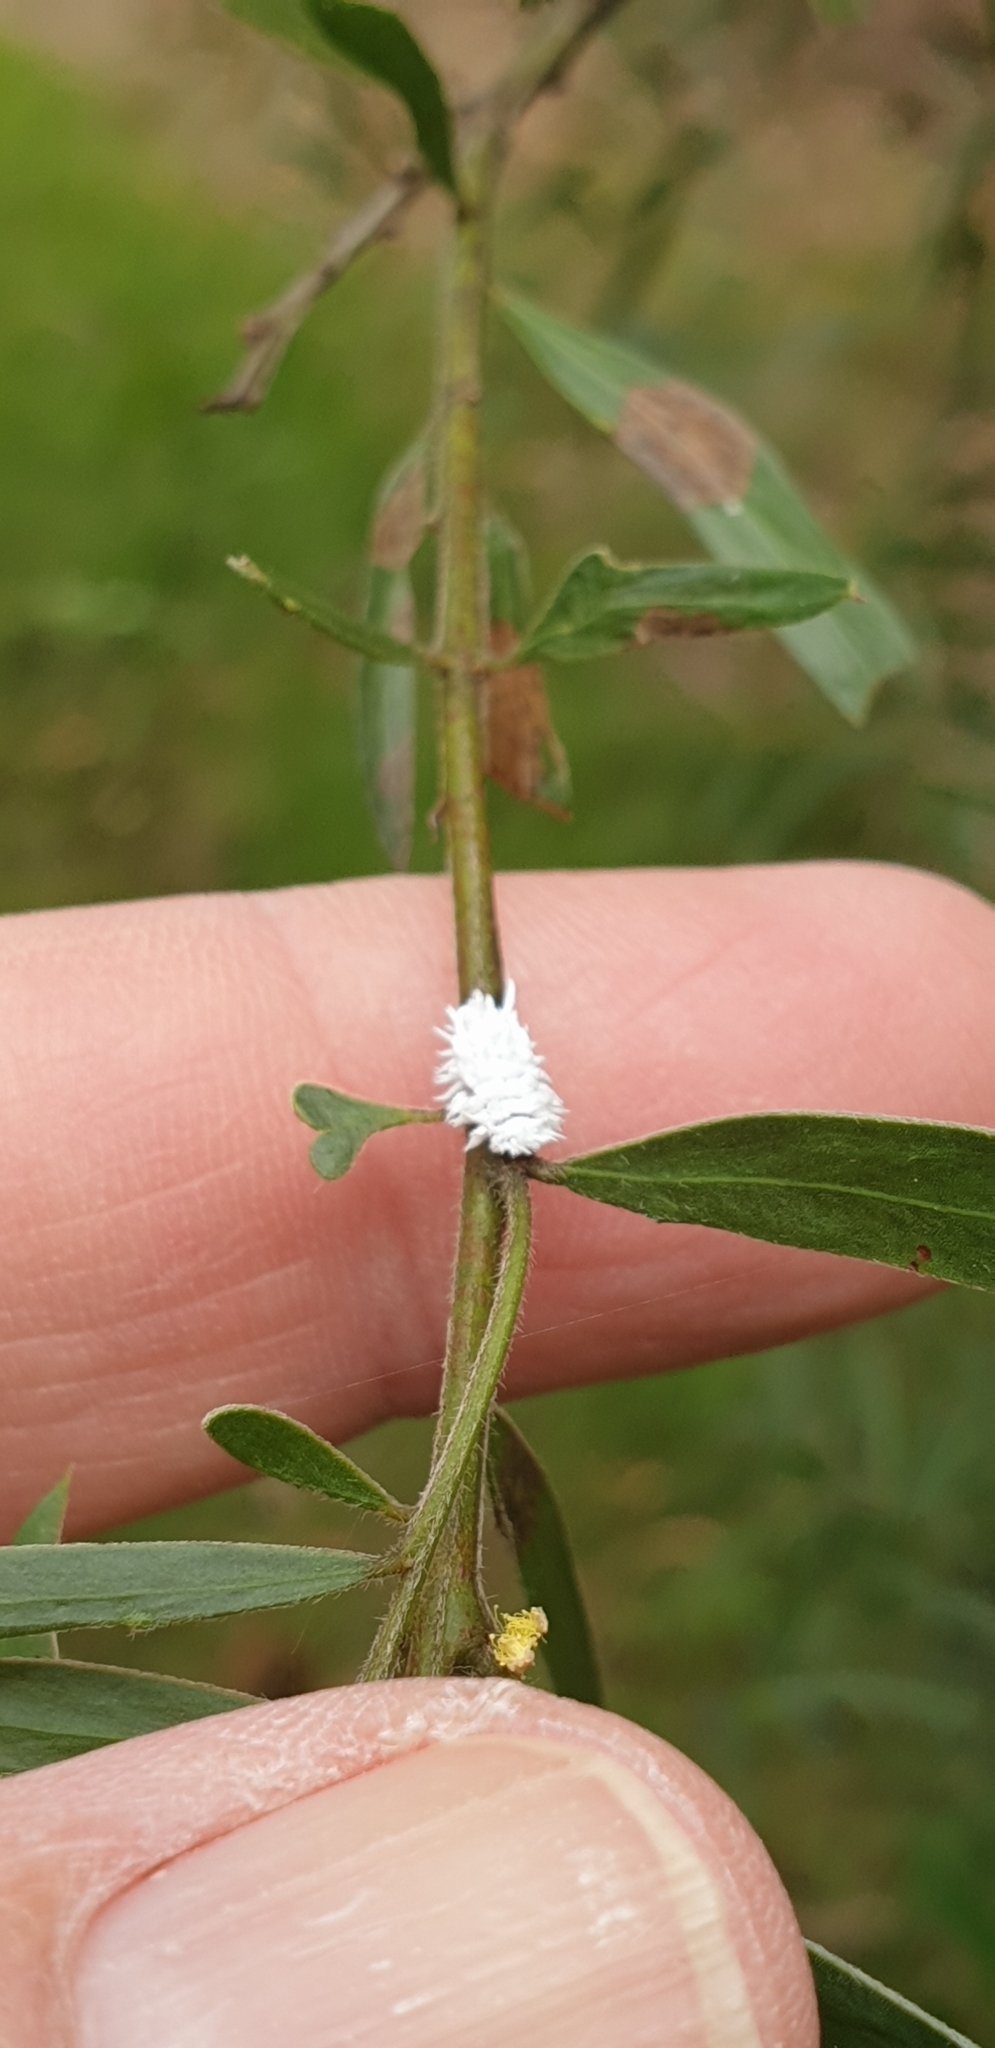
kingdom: Animalia
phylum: Arthropoda
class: Insecta
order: Coleoptera
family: Coccinellidae
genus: Cryptolaemus
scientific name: Cryptolaemus montrouzieri
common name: Mealybug destroyer
